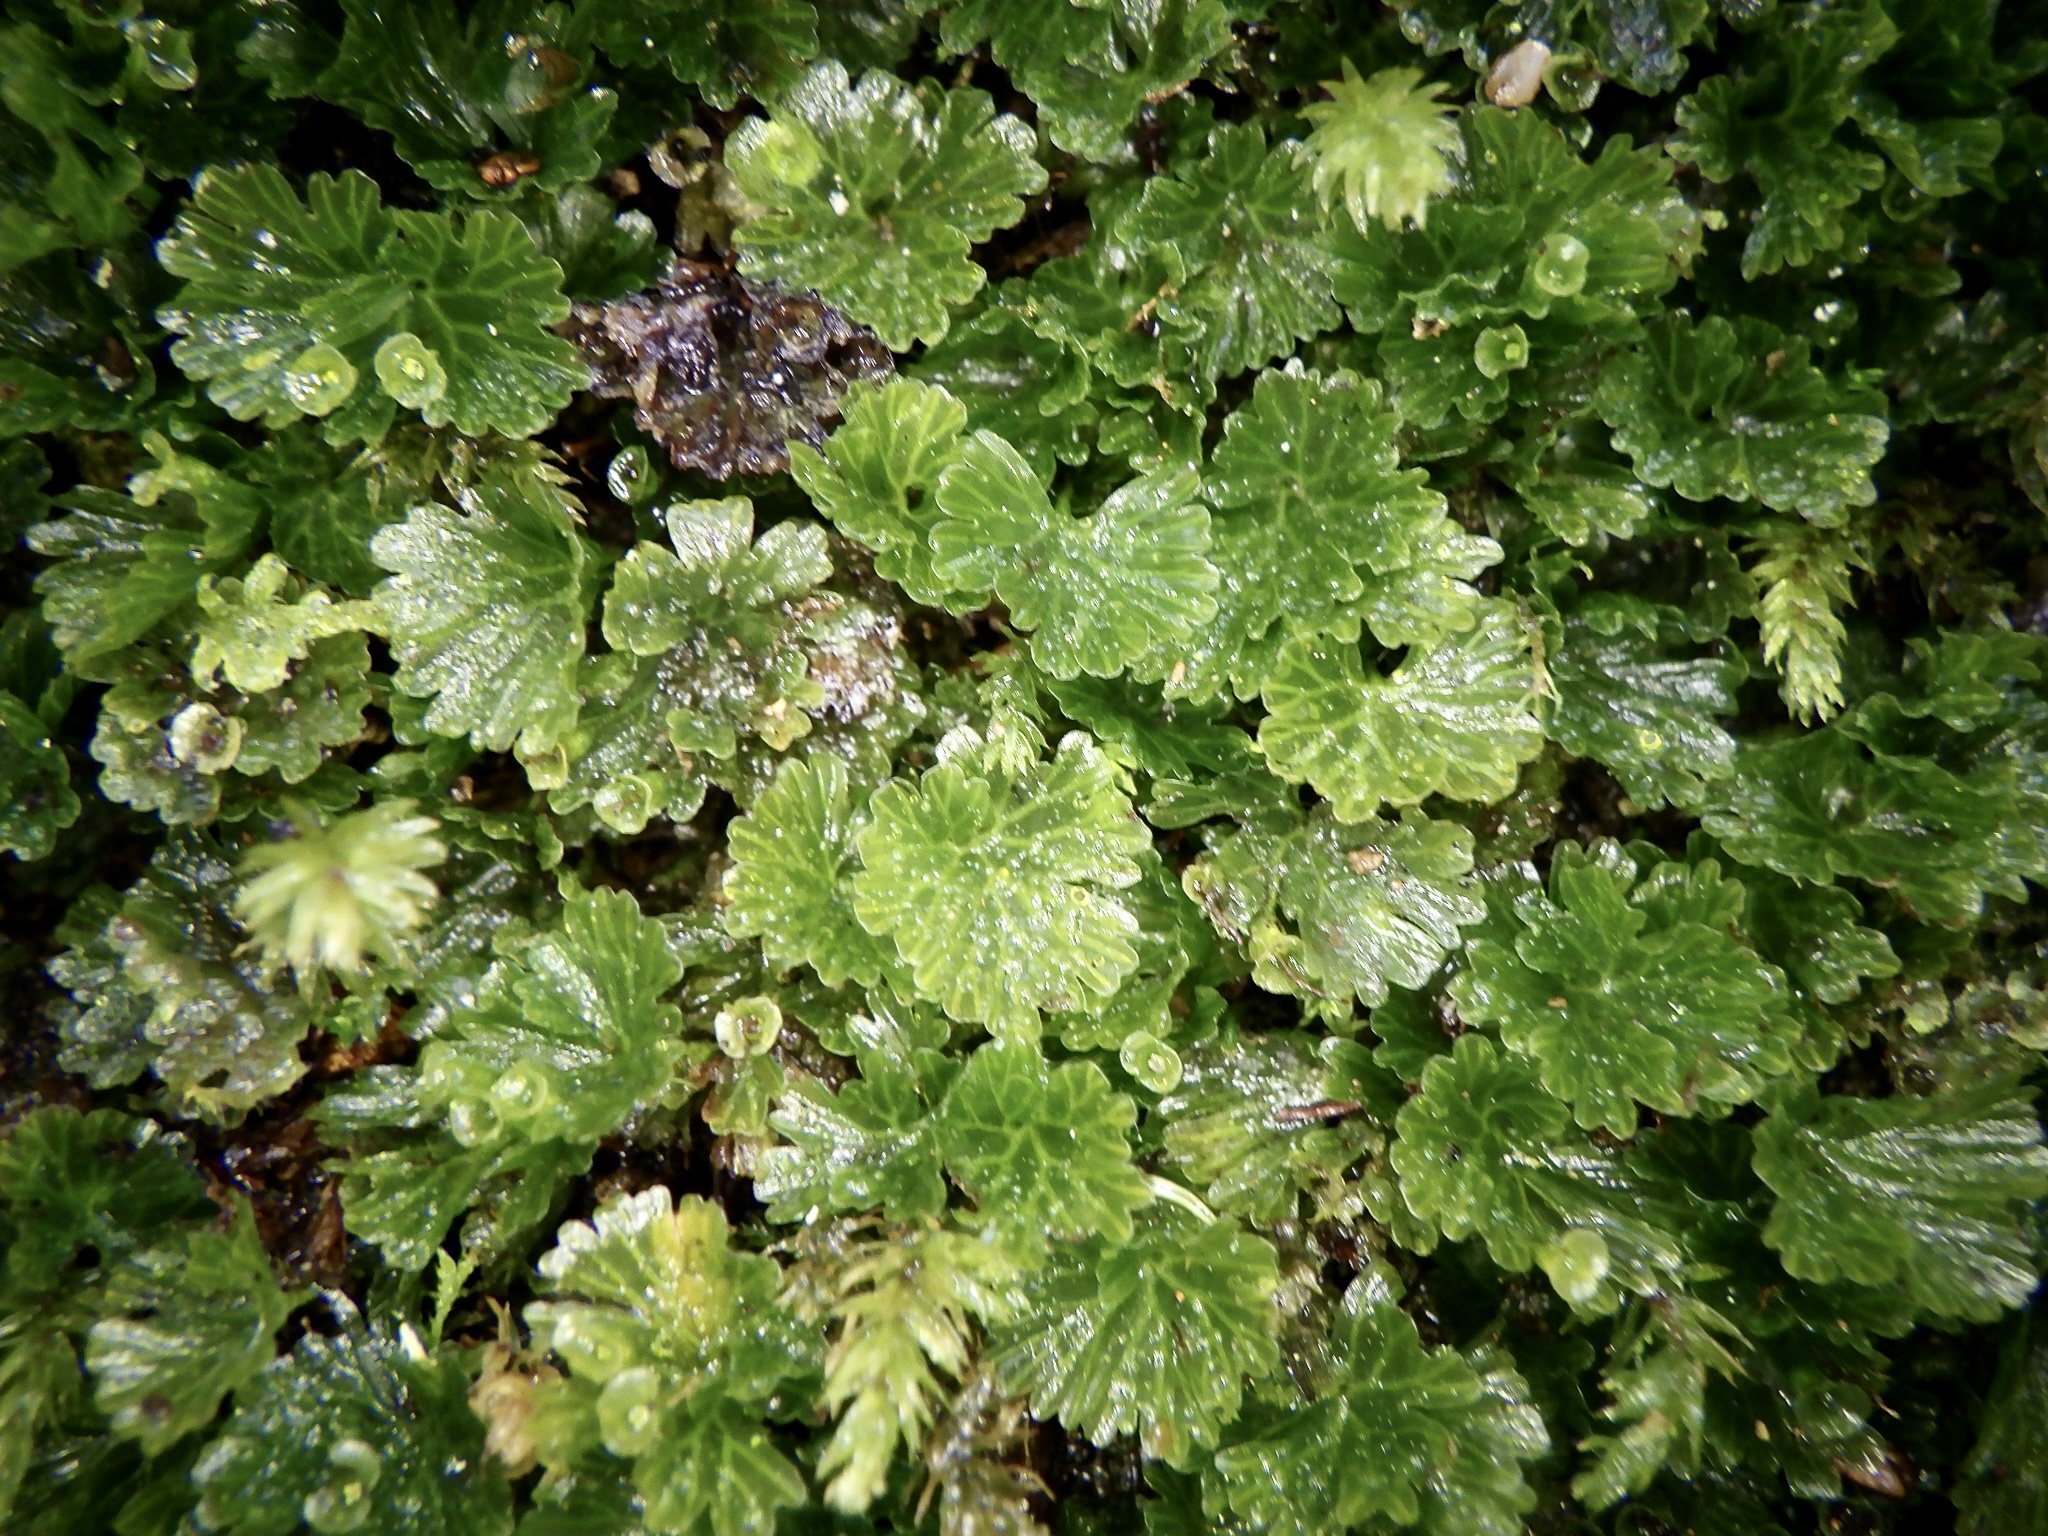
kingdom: Plantae
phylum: Tracheophyta
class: Polypodiopsida
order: Hymenophyllales
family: Hymenophyllaceae
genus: Crepidomanes
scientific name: Crepidomanes parvulum
